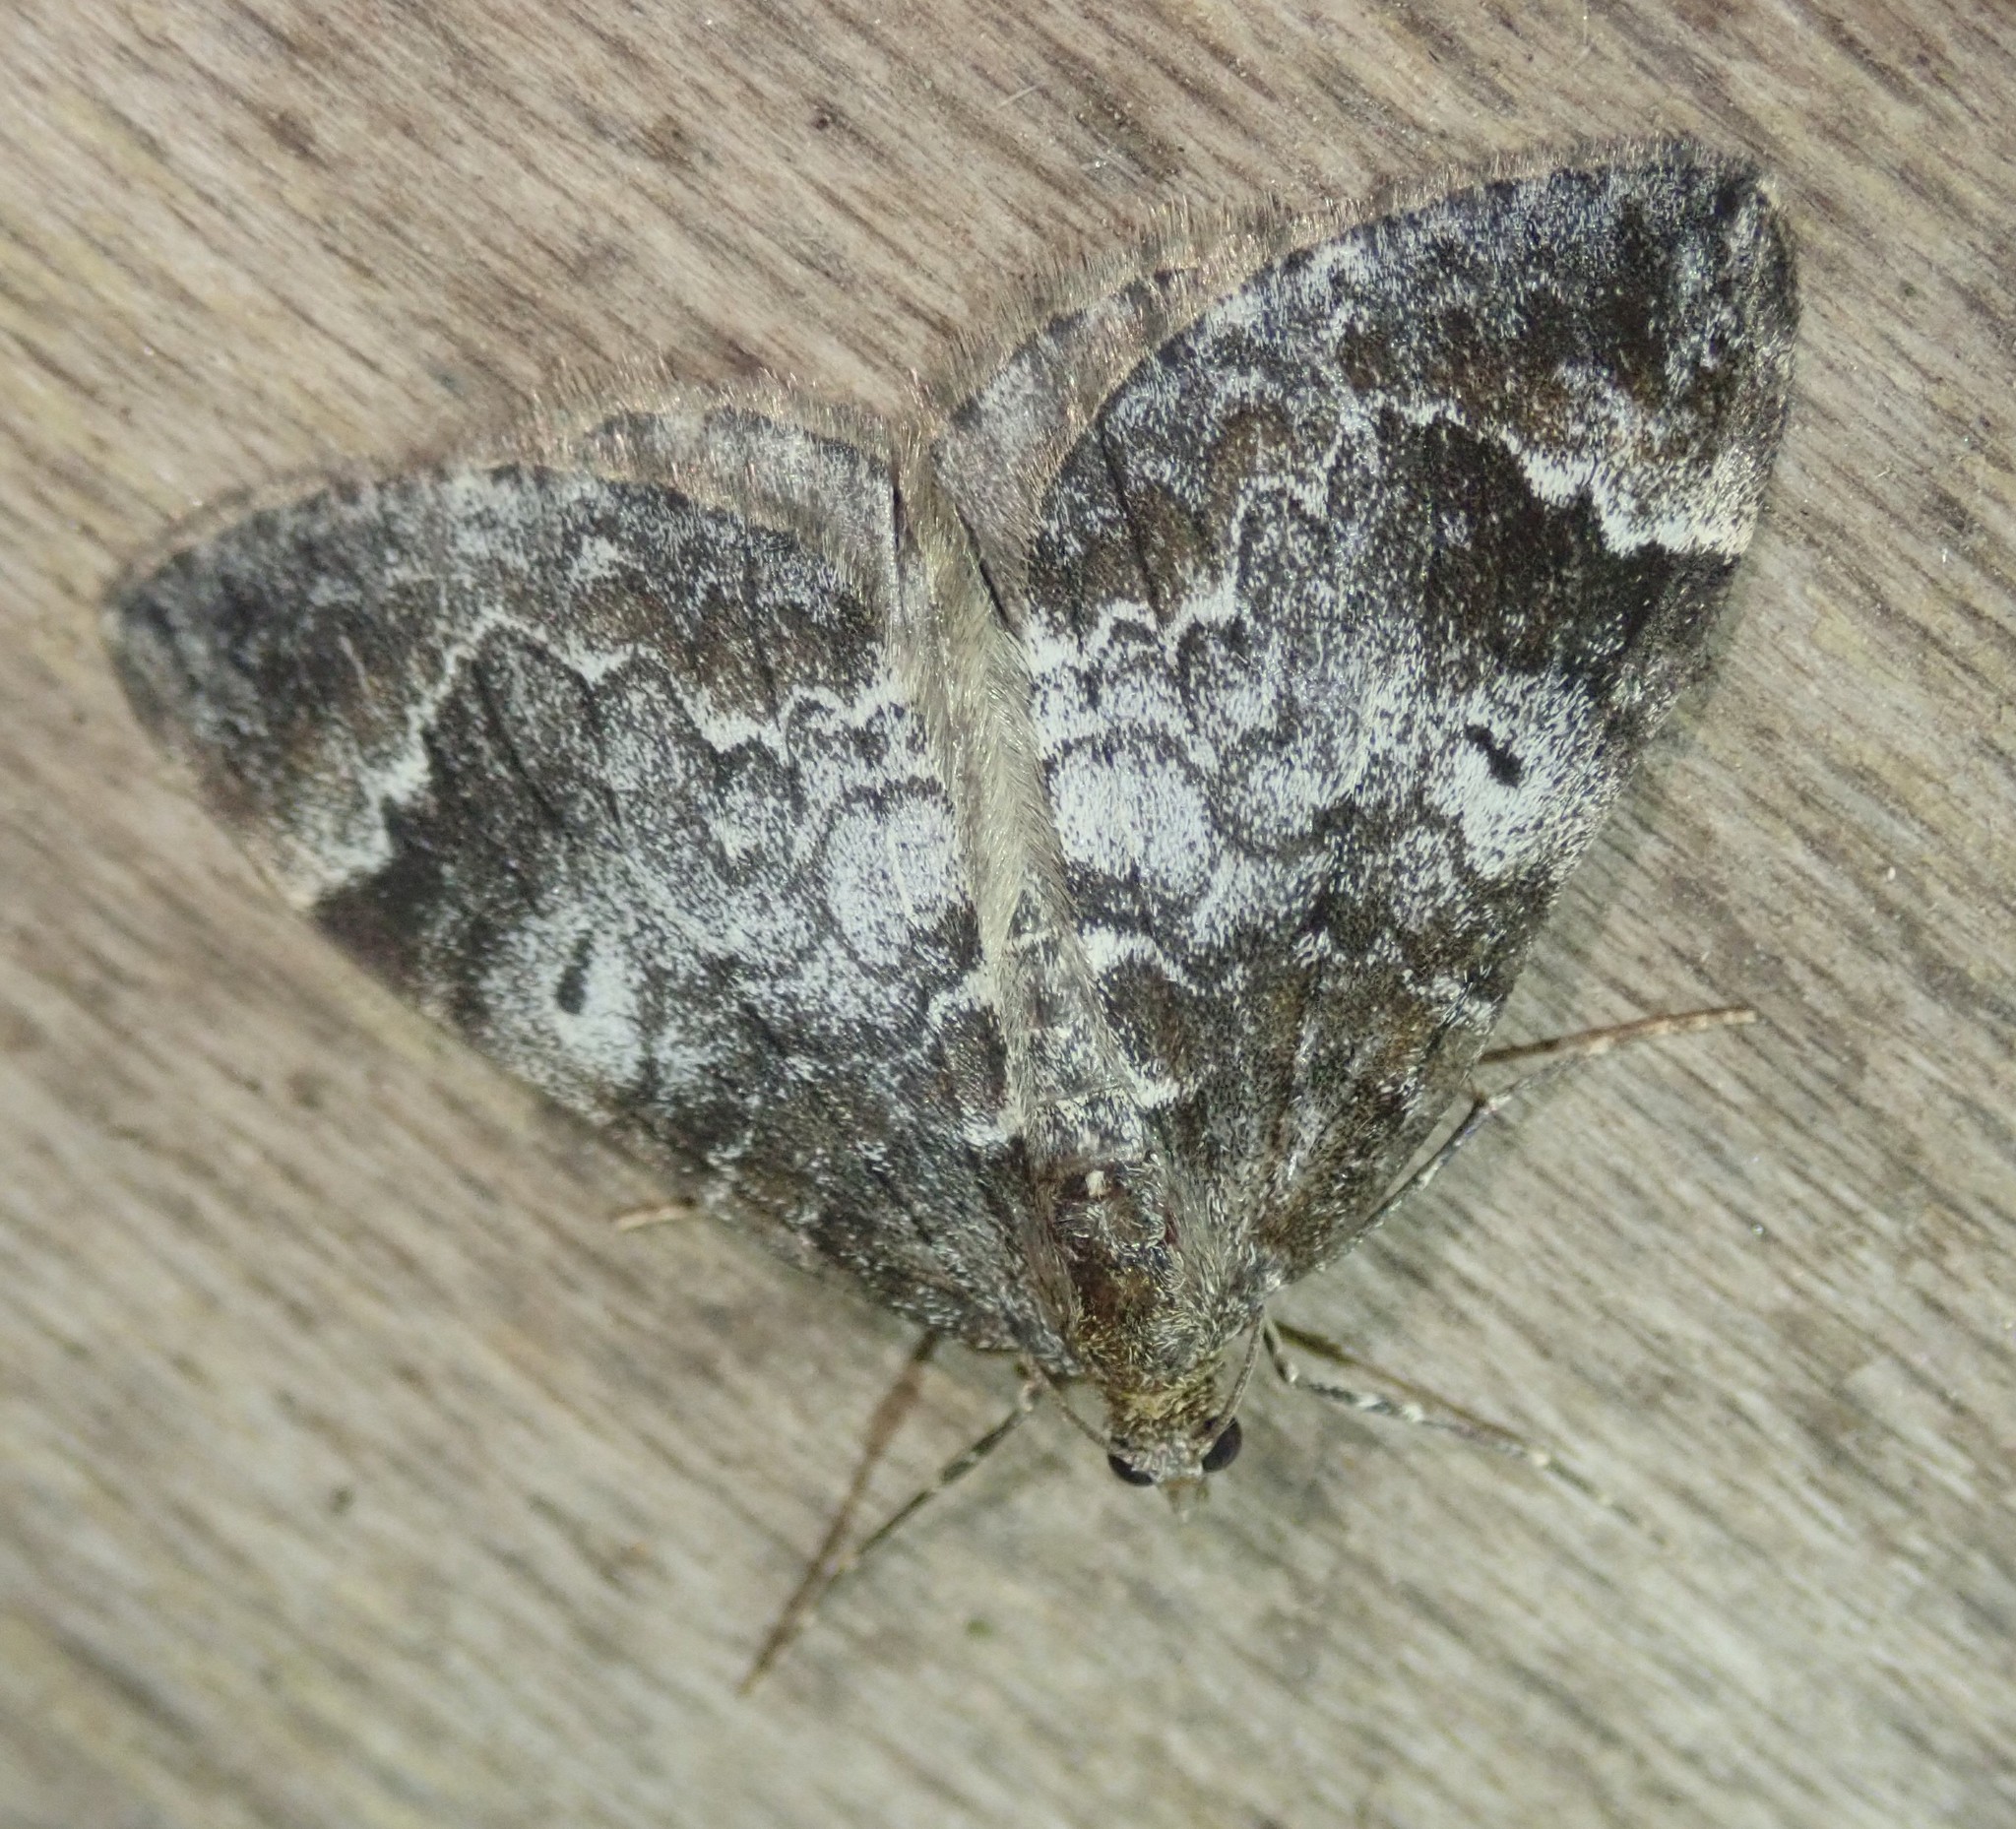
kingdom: Animalia
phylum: Arthropoda
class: Insecta
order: Lepidoptera
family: Geometridae
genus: Dysstroma
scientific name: Dysstroma truncata
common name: Common marbled carpet
